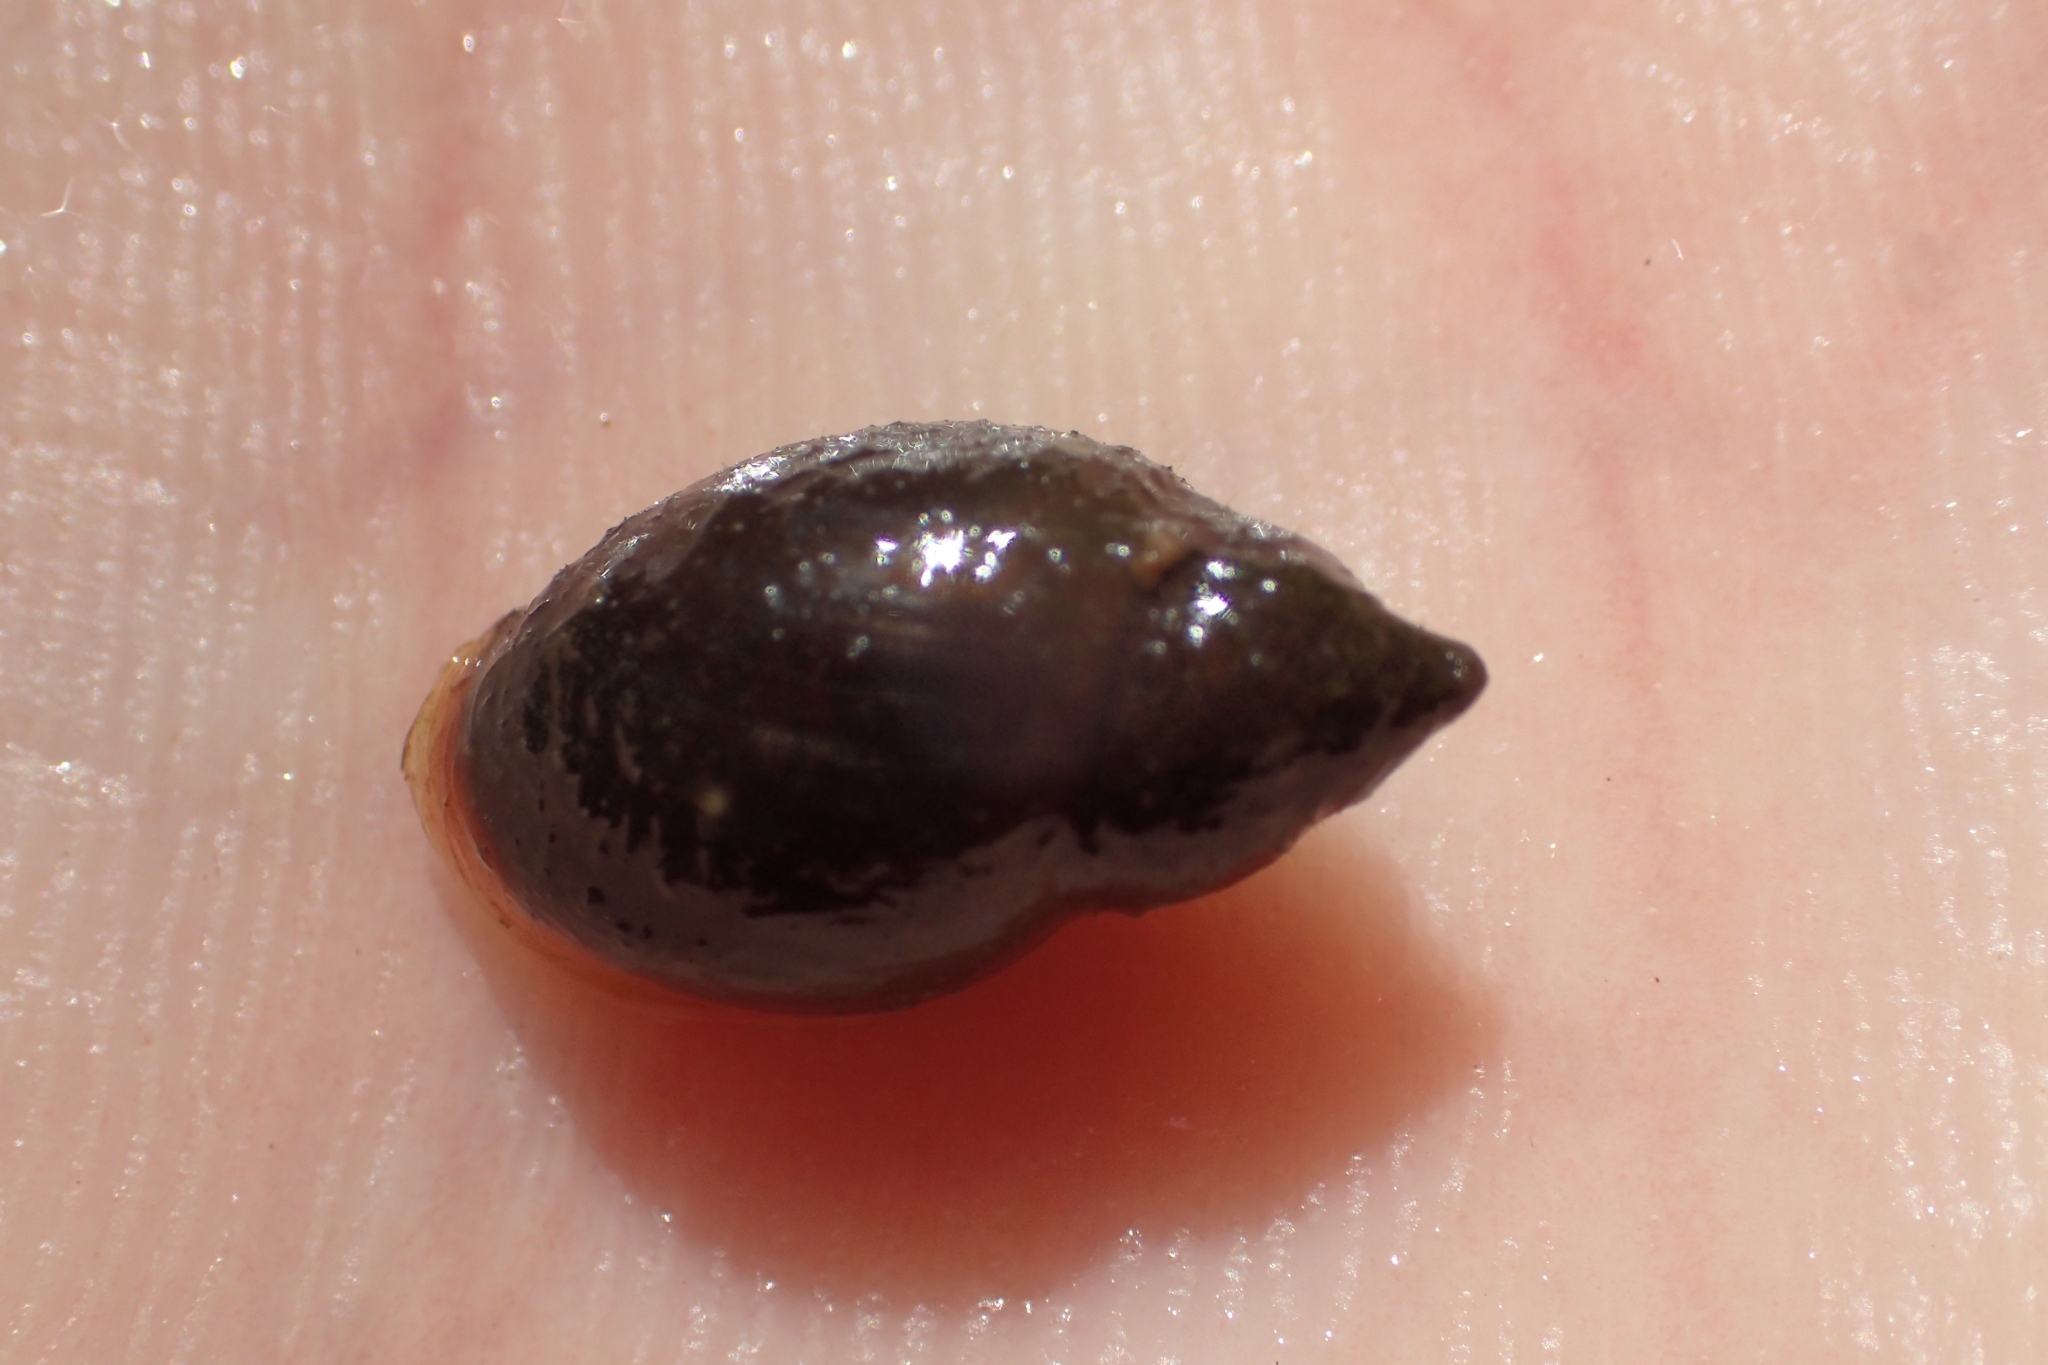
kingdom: Animalia
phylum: Mollusca
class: Gastropoda
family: Planorbidae
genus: Glyptophysa
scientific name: Glyptophysa novaehollandica
